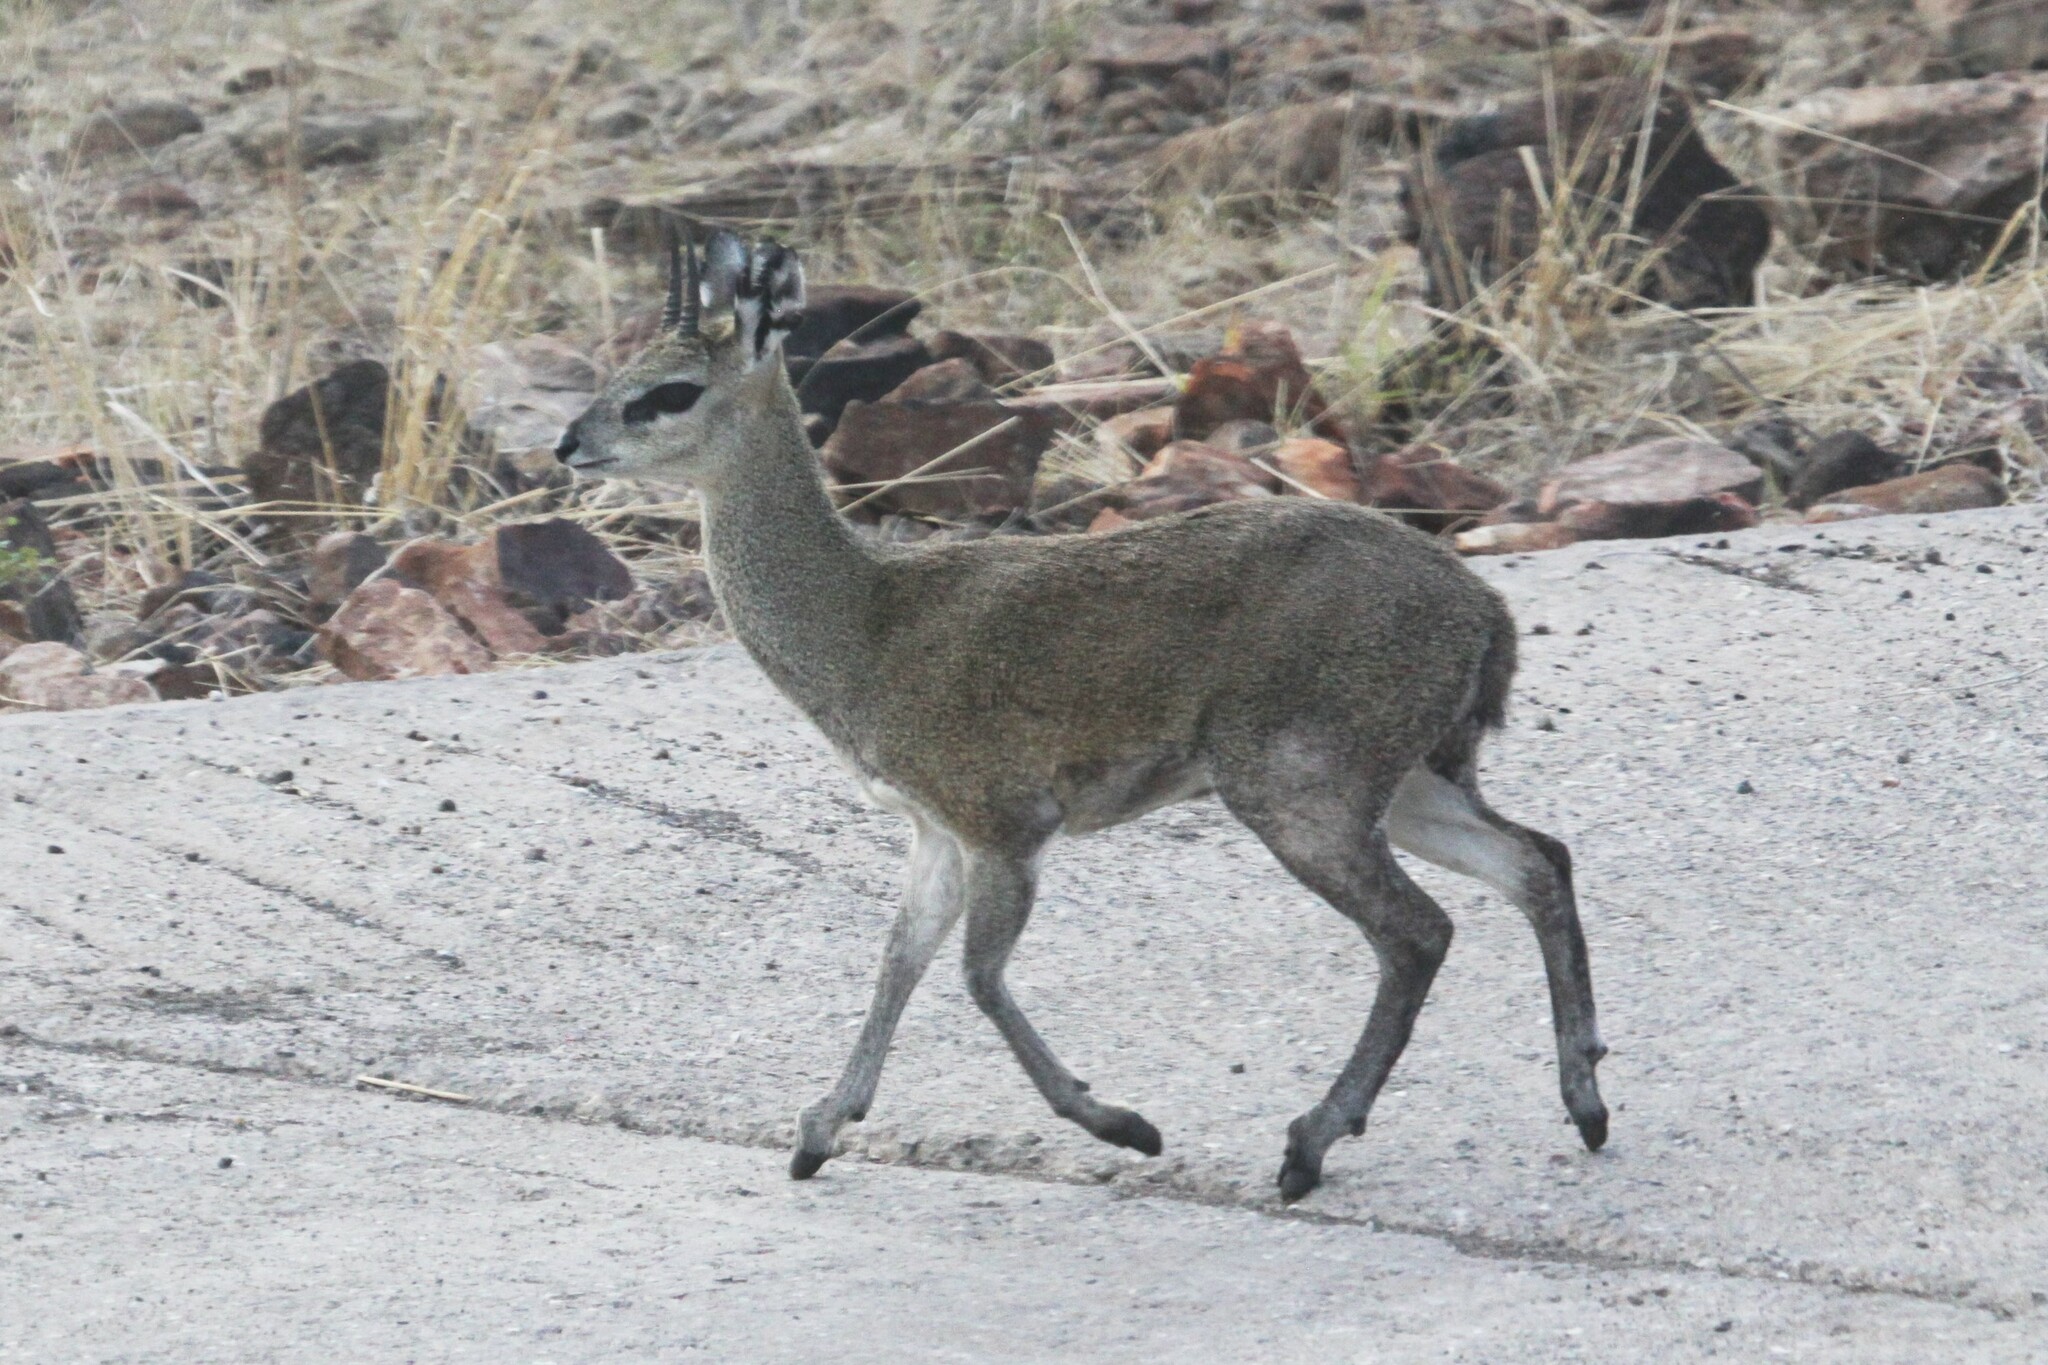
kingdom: Animalia
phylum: Chordata
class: Mammalia
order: Artiodactyla
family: Bovidae
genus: Oreotragus
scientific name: Oreotragus oreotragus
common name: Klipspringer
